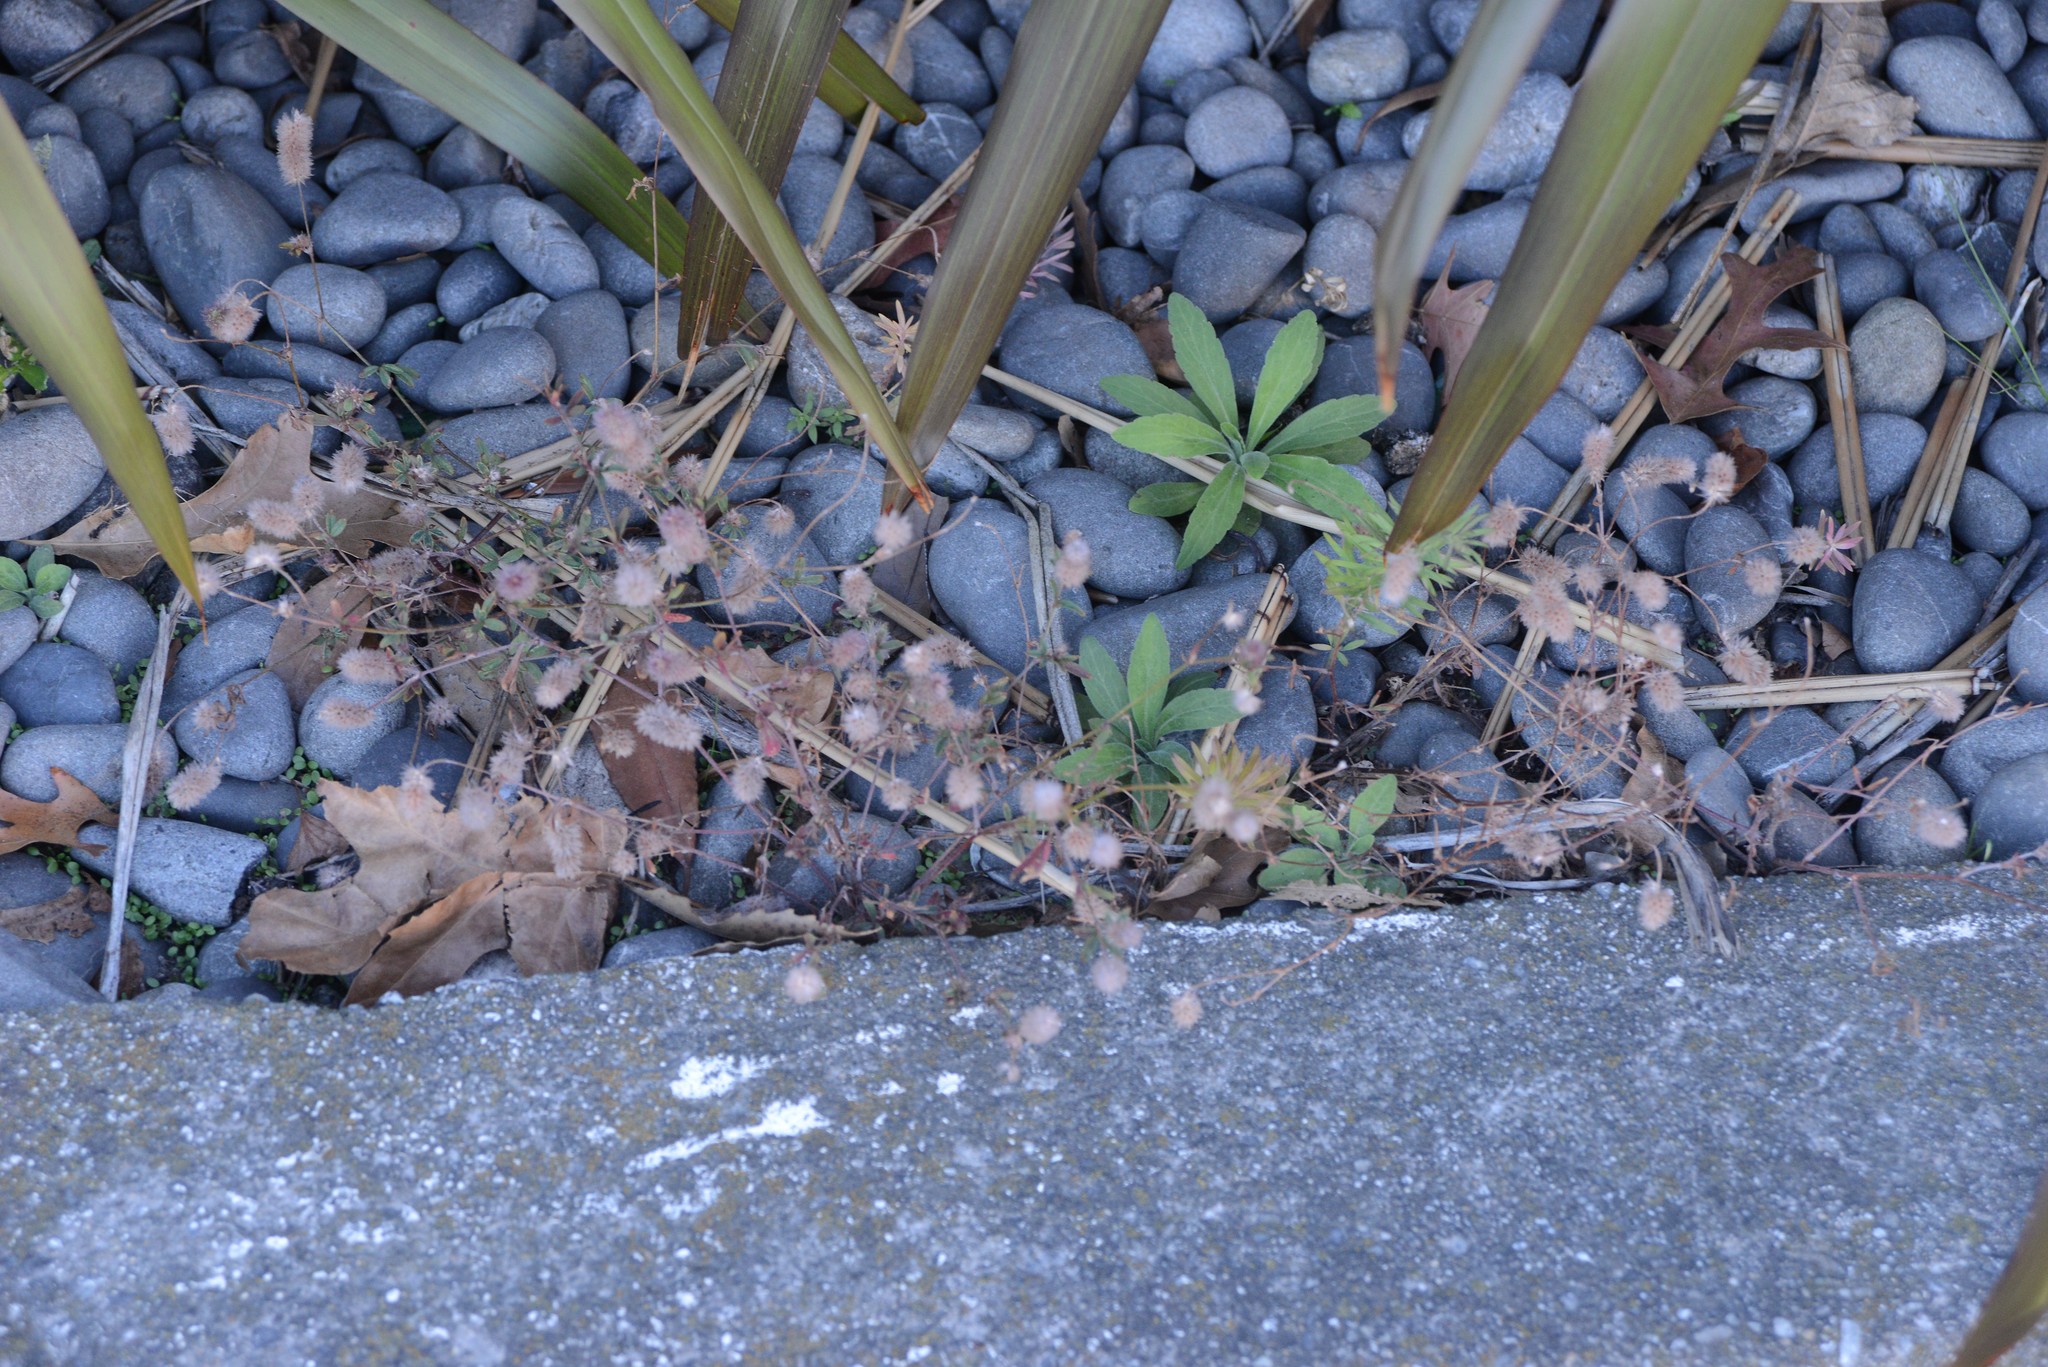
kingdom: Plantae
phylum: Tracheophyta
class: Magnoliopsida
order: Fabales
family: Fabaceae
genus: Trifolium
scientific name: Trifolium arvense
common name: Hare's-foot clover
